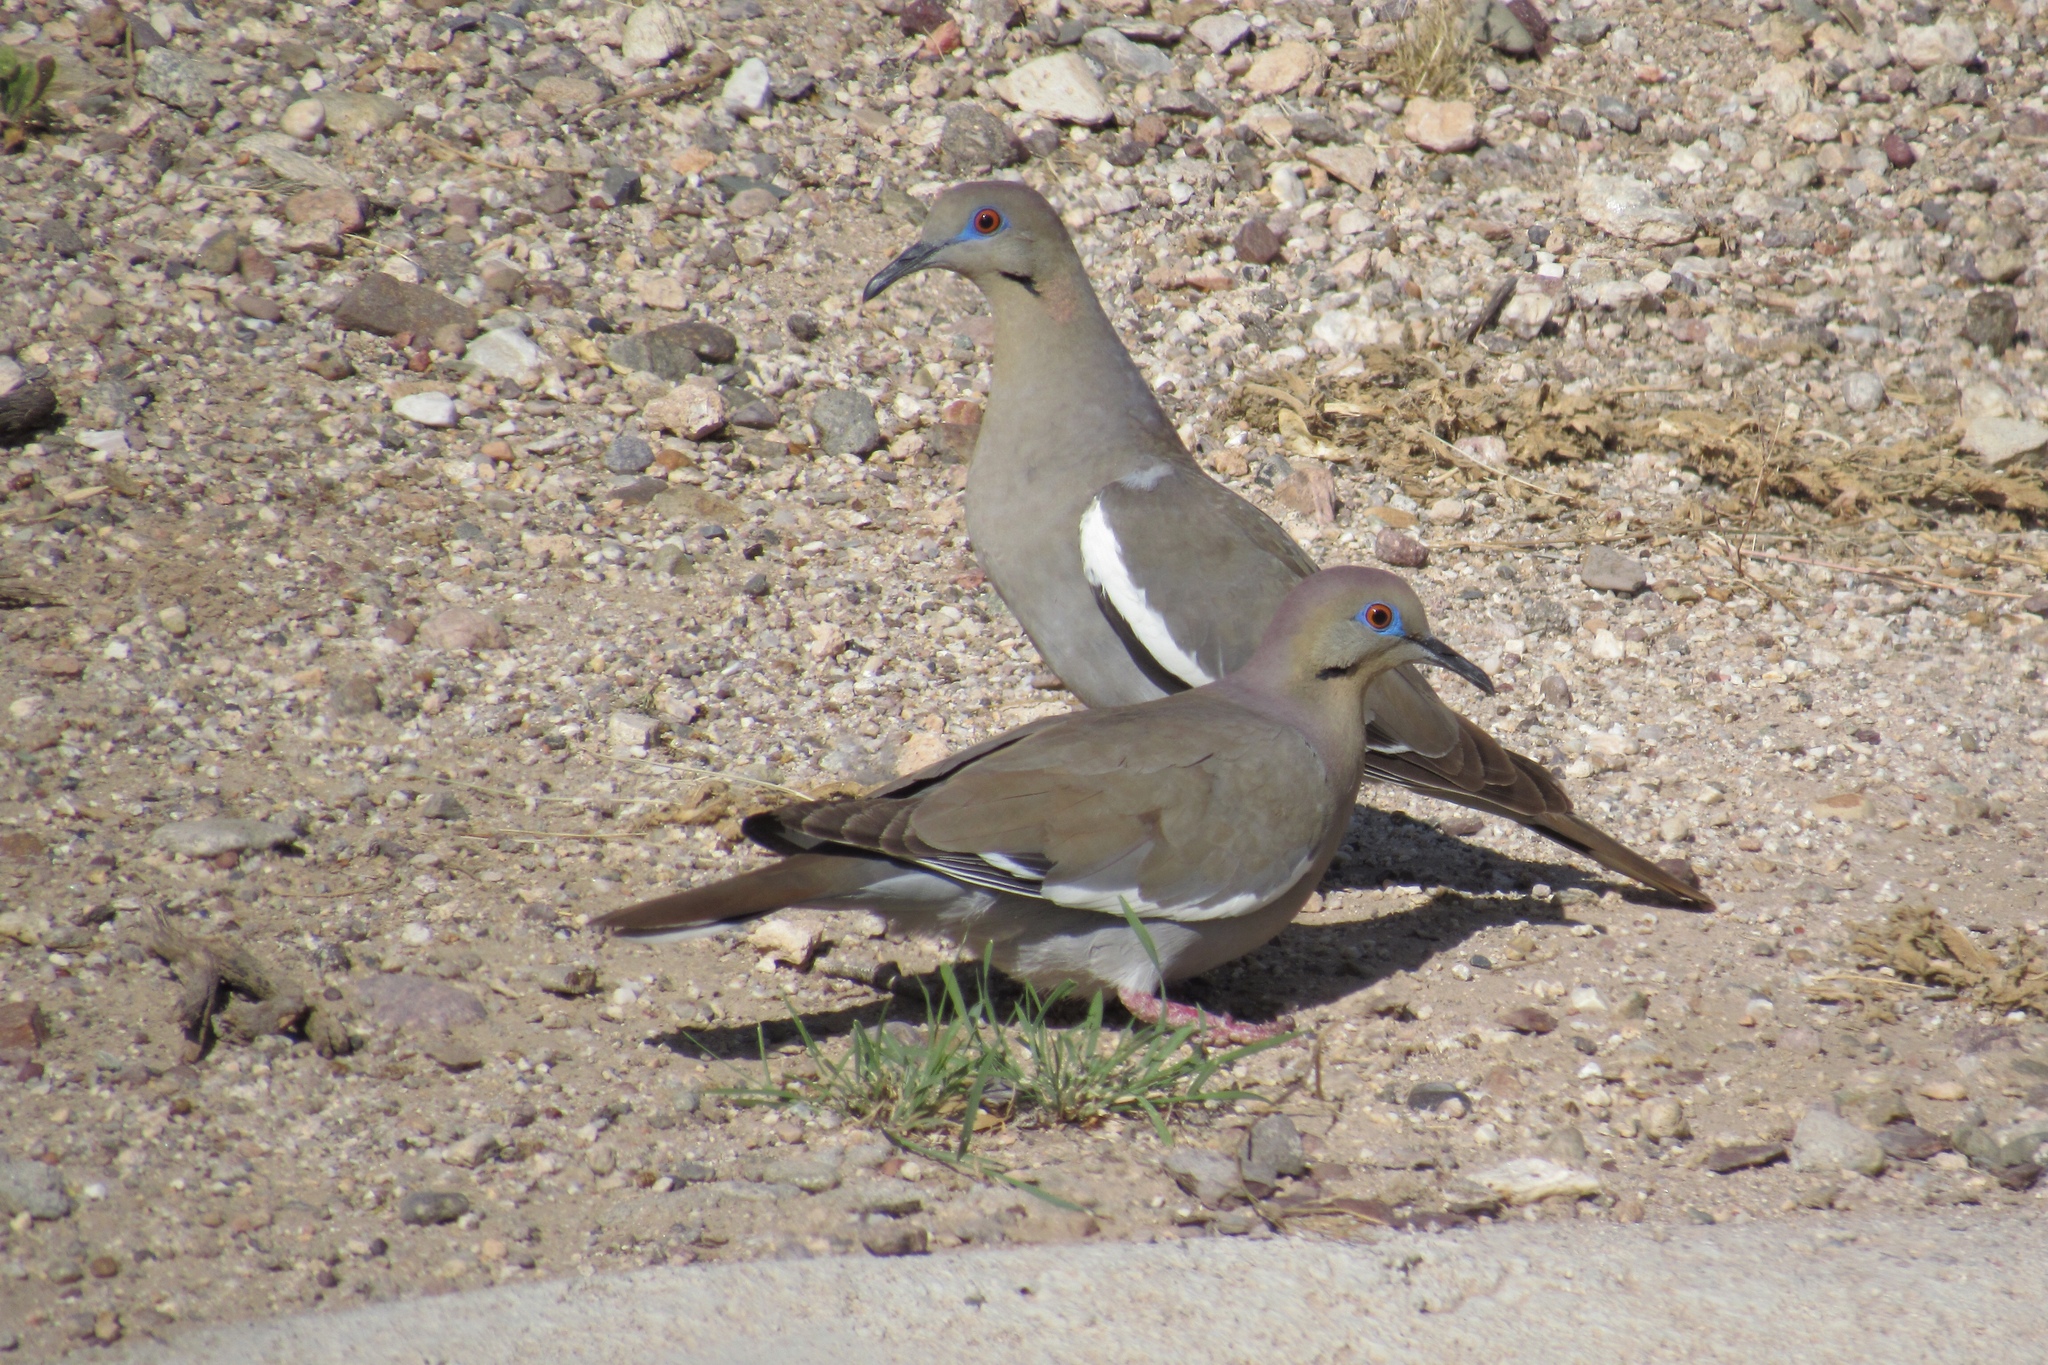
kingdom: Animalia
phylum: Chordata
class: Aves
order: Columbiformes
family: Columbidae
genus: Zenaida
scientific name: Zenaida asiatica
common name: White-winged dove
